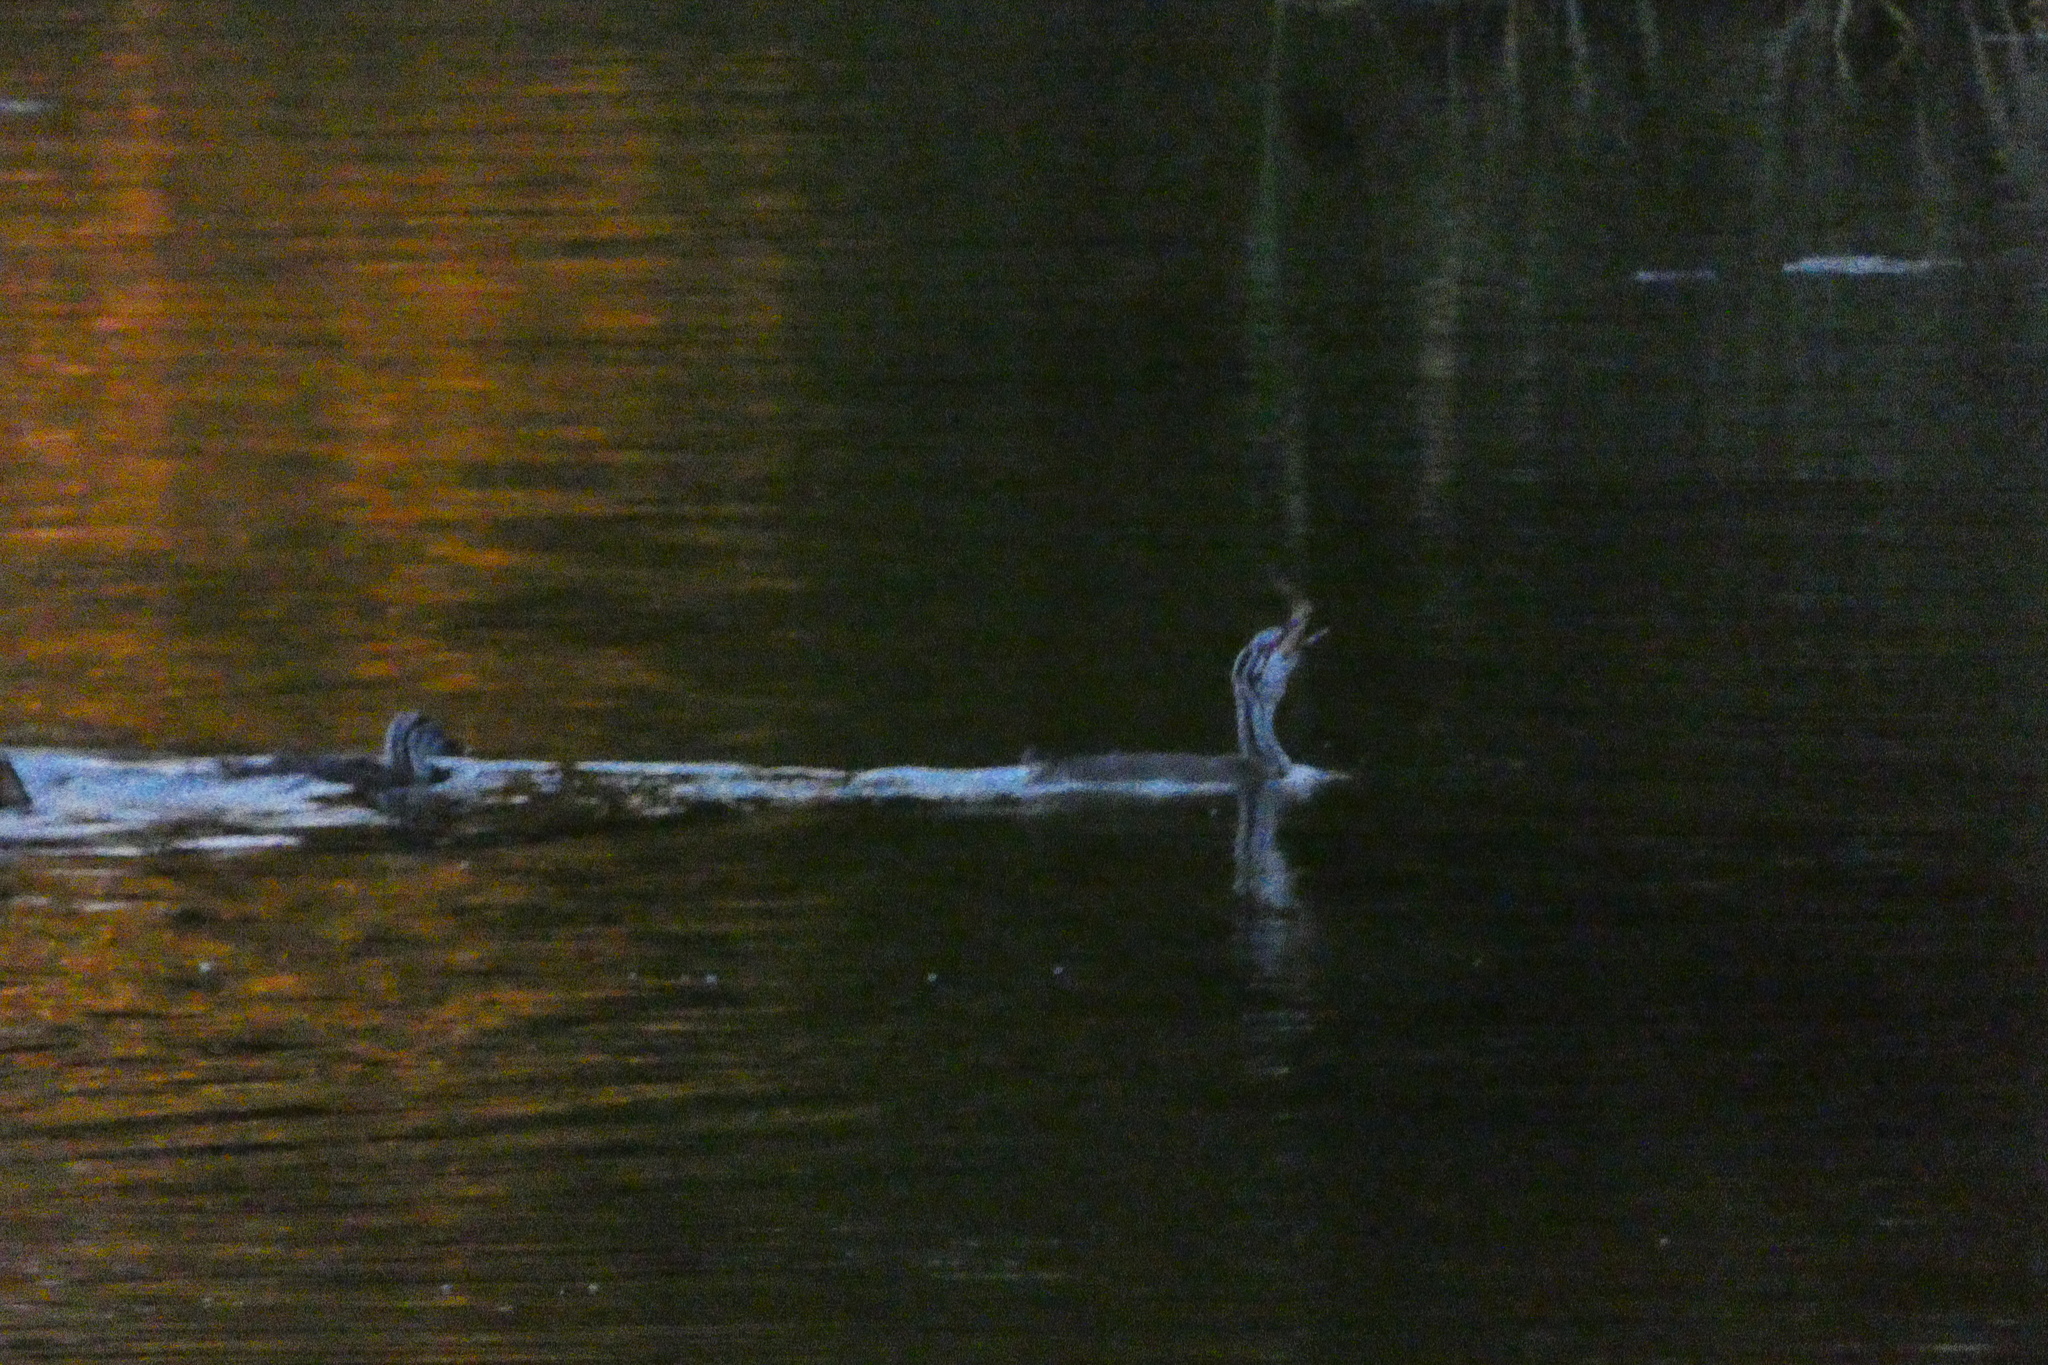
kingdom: Animalia
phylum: Chordata
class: Aves
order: Podicipediformes
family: Podicipedidae
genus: Podiceps
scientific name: Podiceps cristatus
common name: Great crested grebe
